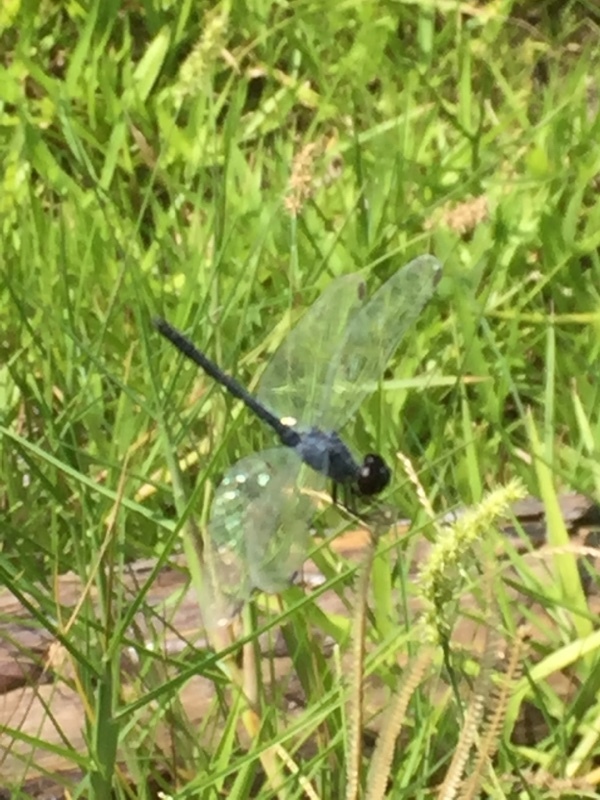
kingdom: Animalia
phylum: Arthropoda
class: Insecta
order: Odonata
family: Libellulidae
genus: Erythrodiplax
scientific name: Erythrodiplax berenice
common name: Seaside dragonlet
